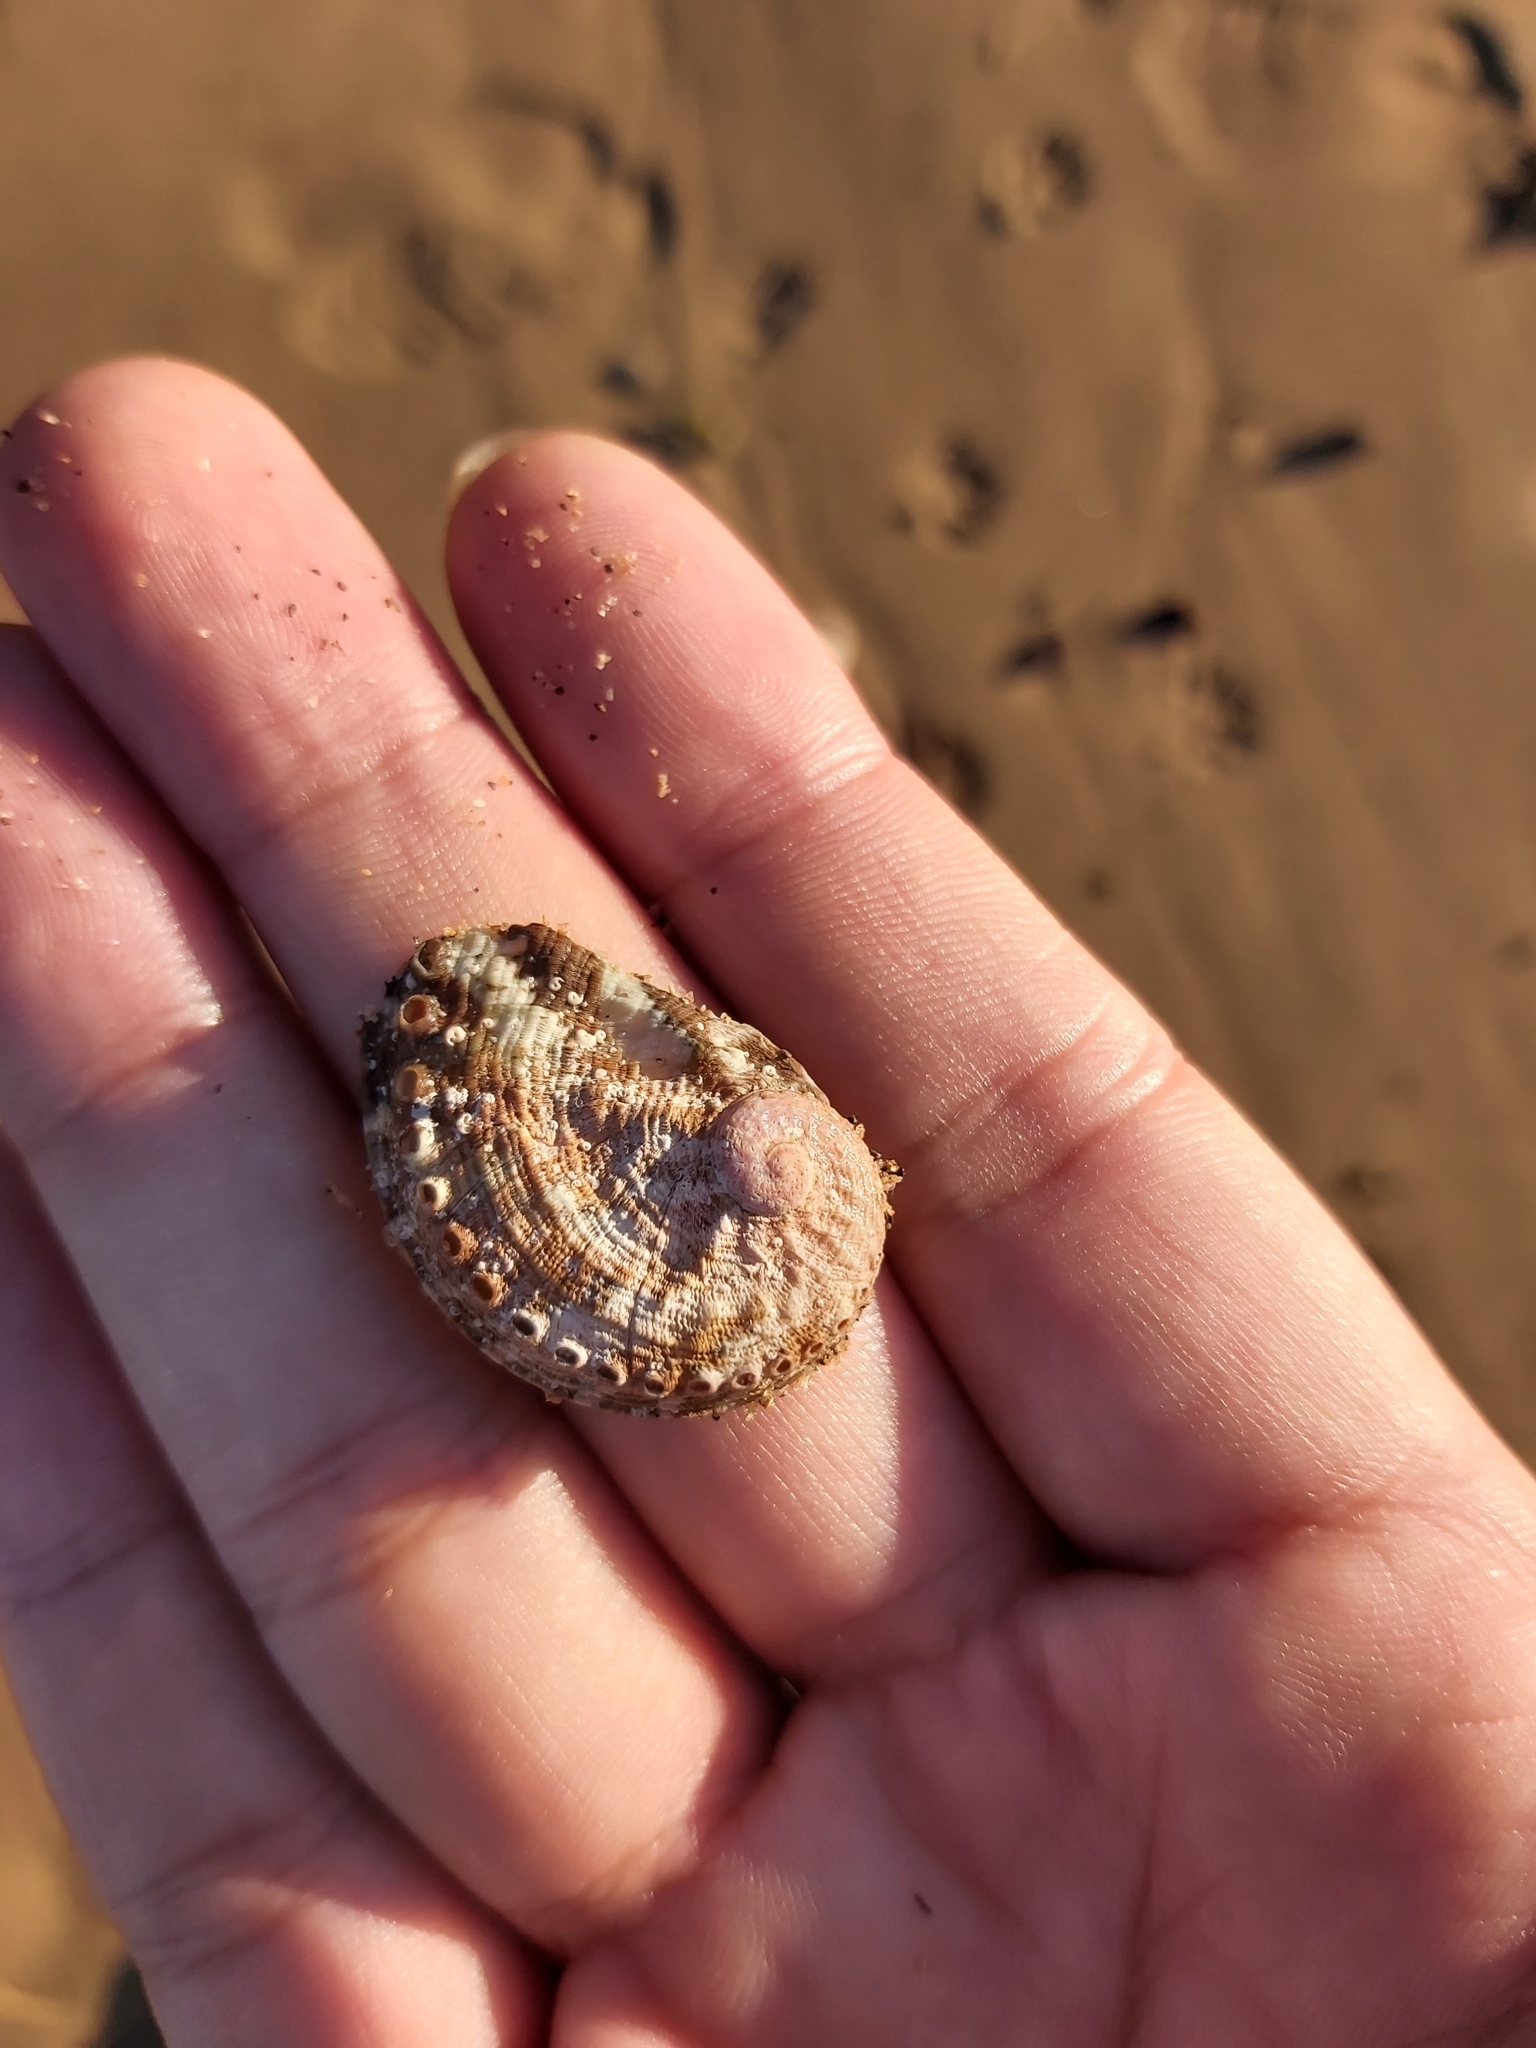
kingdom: Animalia
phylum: Mollusca
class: Gastropoda
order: Lepetellida
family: Haliotidae
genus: Haliotis
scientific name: Haliotis coccoradiata
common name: Reddish-rayed abalone
